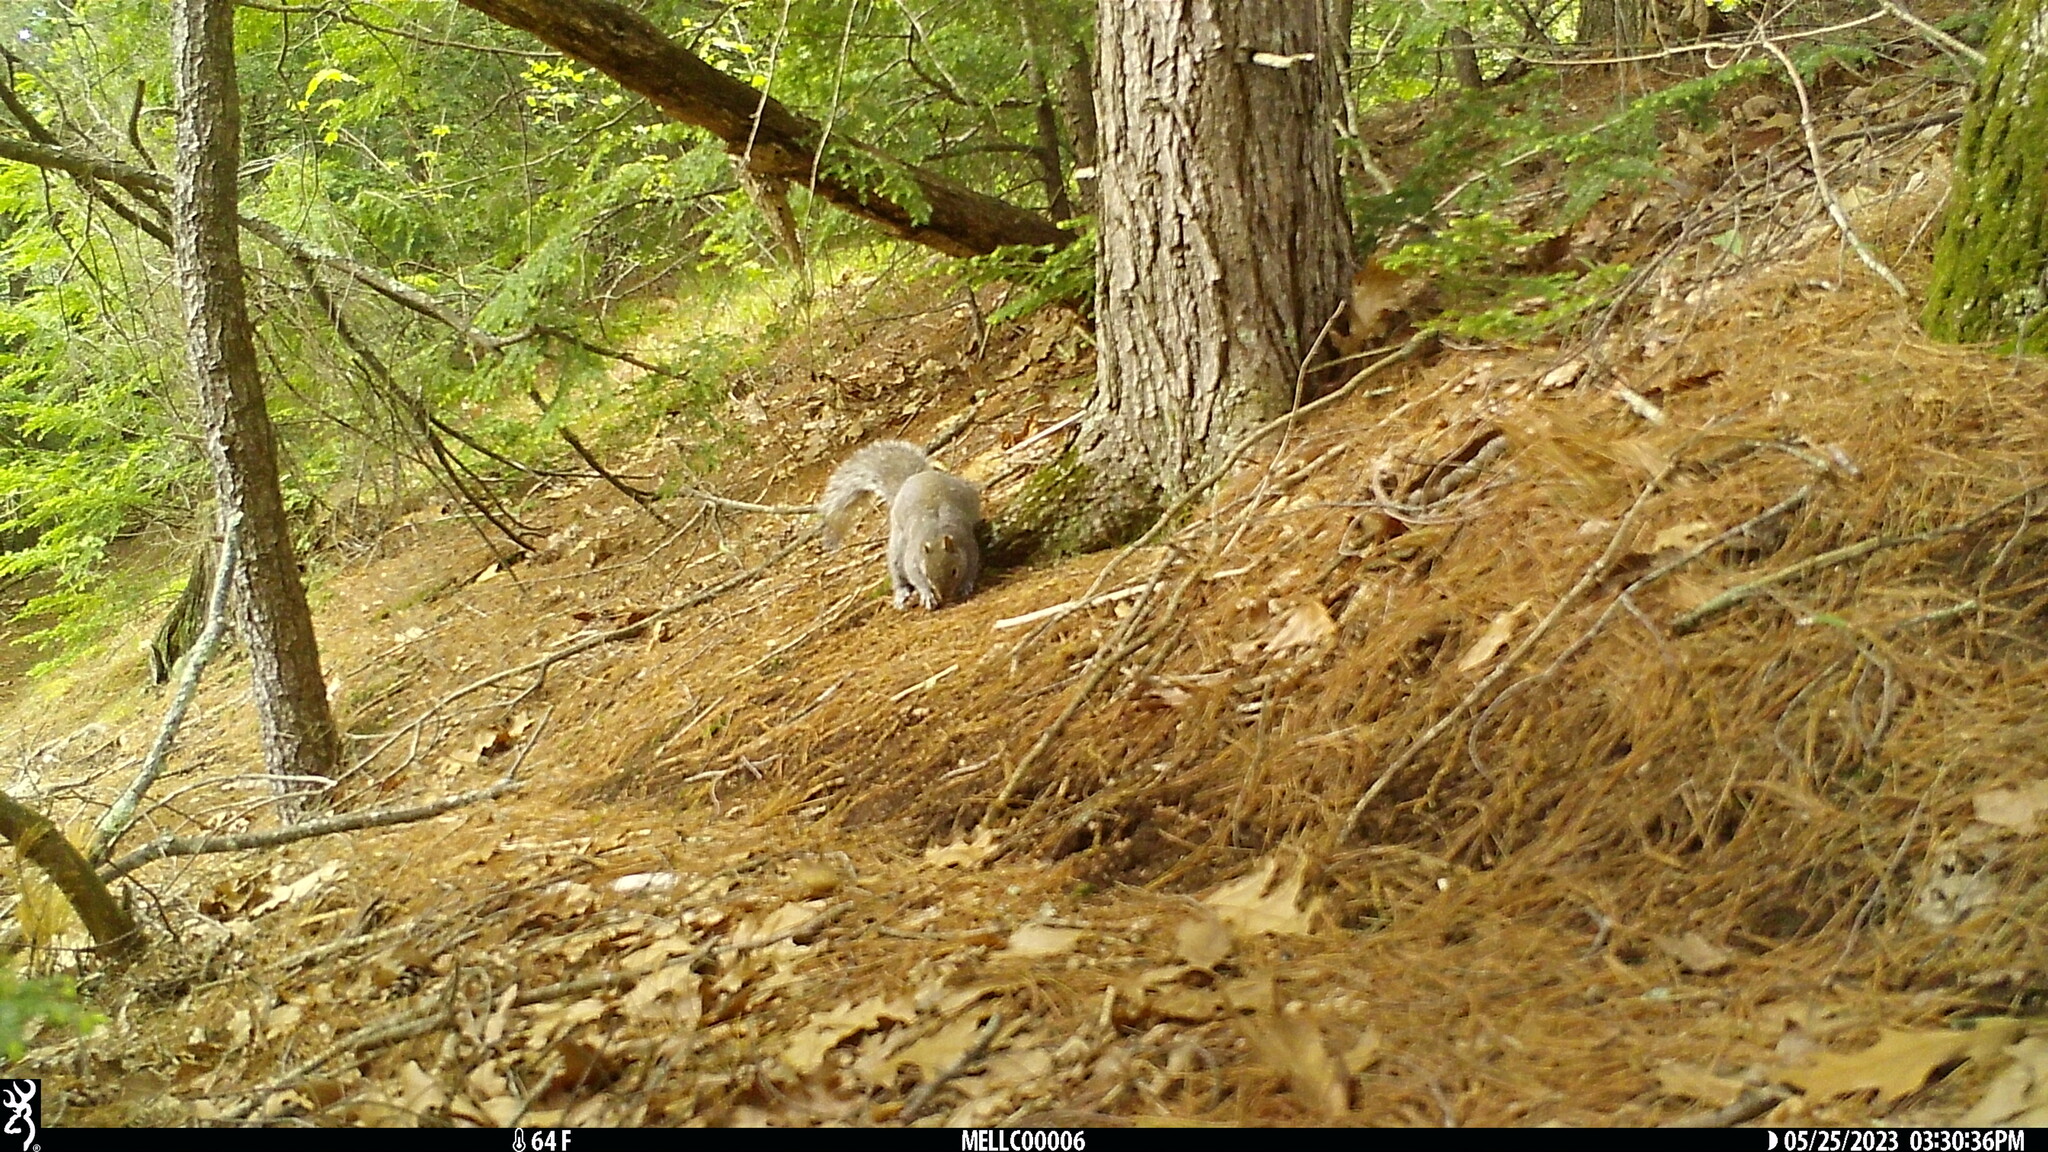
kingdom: Animalia
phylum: Chordata
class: Mammalia
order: Rodentia
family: Sciuridae
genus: Sciurus
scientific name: Sciurus carolinensis
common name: Eastern gray squirrel
